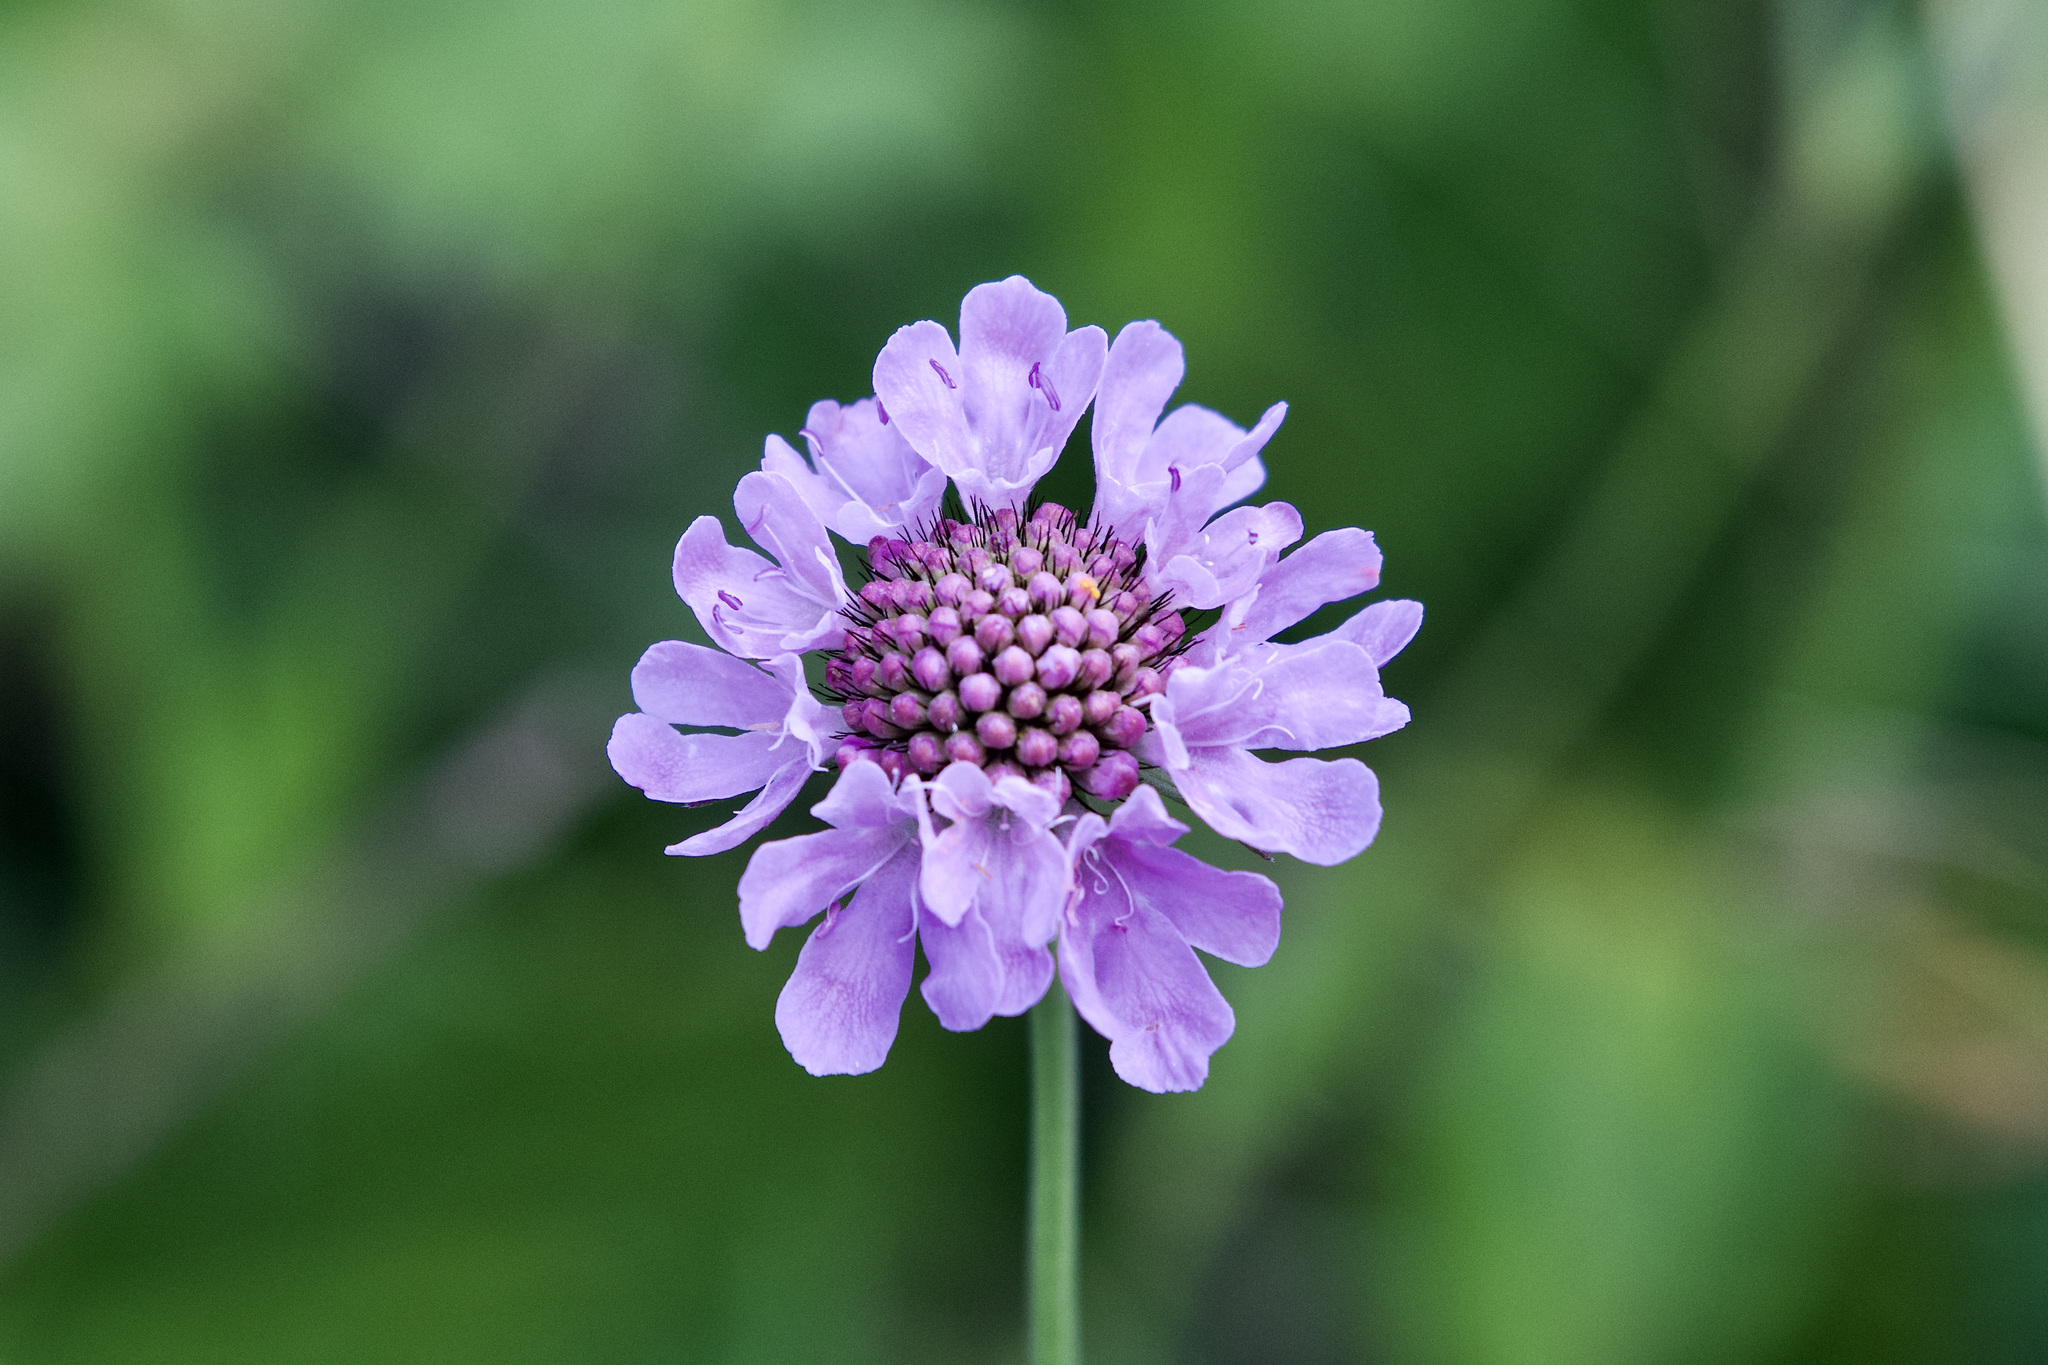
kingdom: Plantae
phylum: Tracheophyta
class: Magnoliopsida
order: Dipsacales
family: Caprifoliaceae
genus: Scabiosa
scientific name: Scabiosa lucida
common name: Shining scabious
